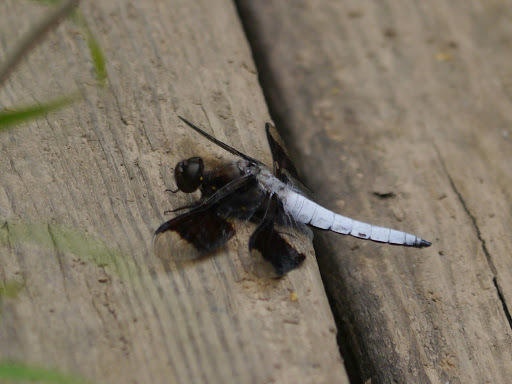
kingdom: Animalia
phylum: Arthropoda
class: Insecta
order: Odonata
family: Libellulidae
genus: Plathemis
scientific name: Plathemis lydia
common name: Common whitetail
